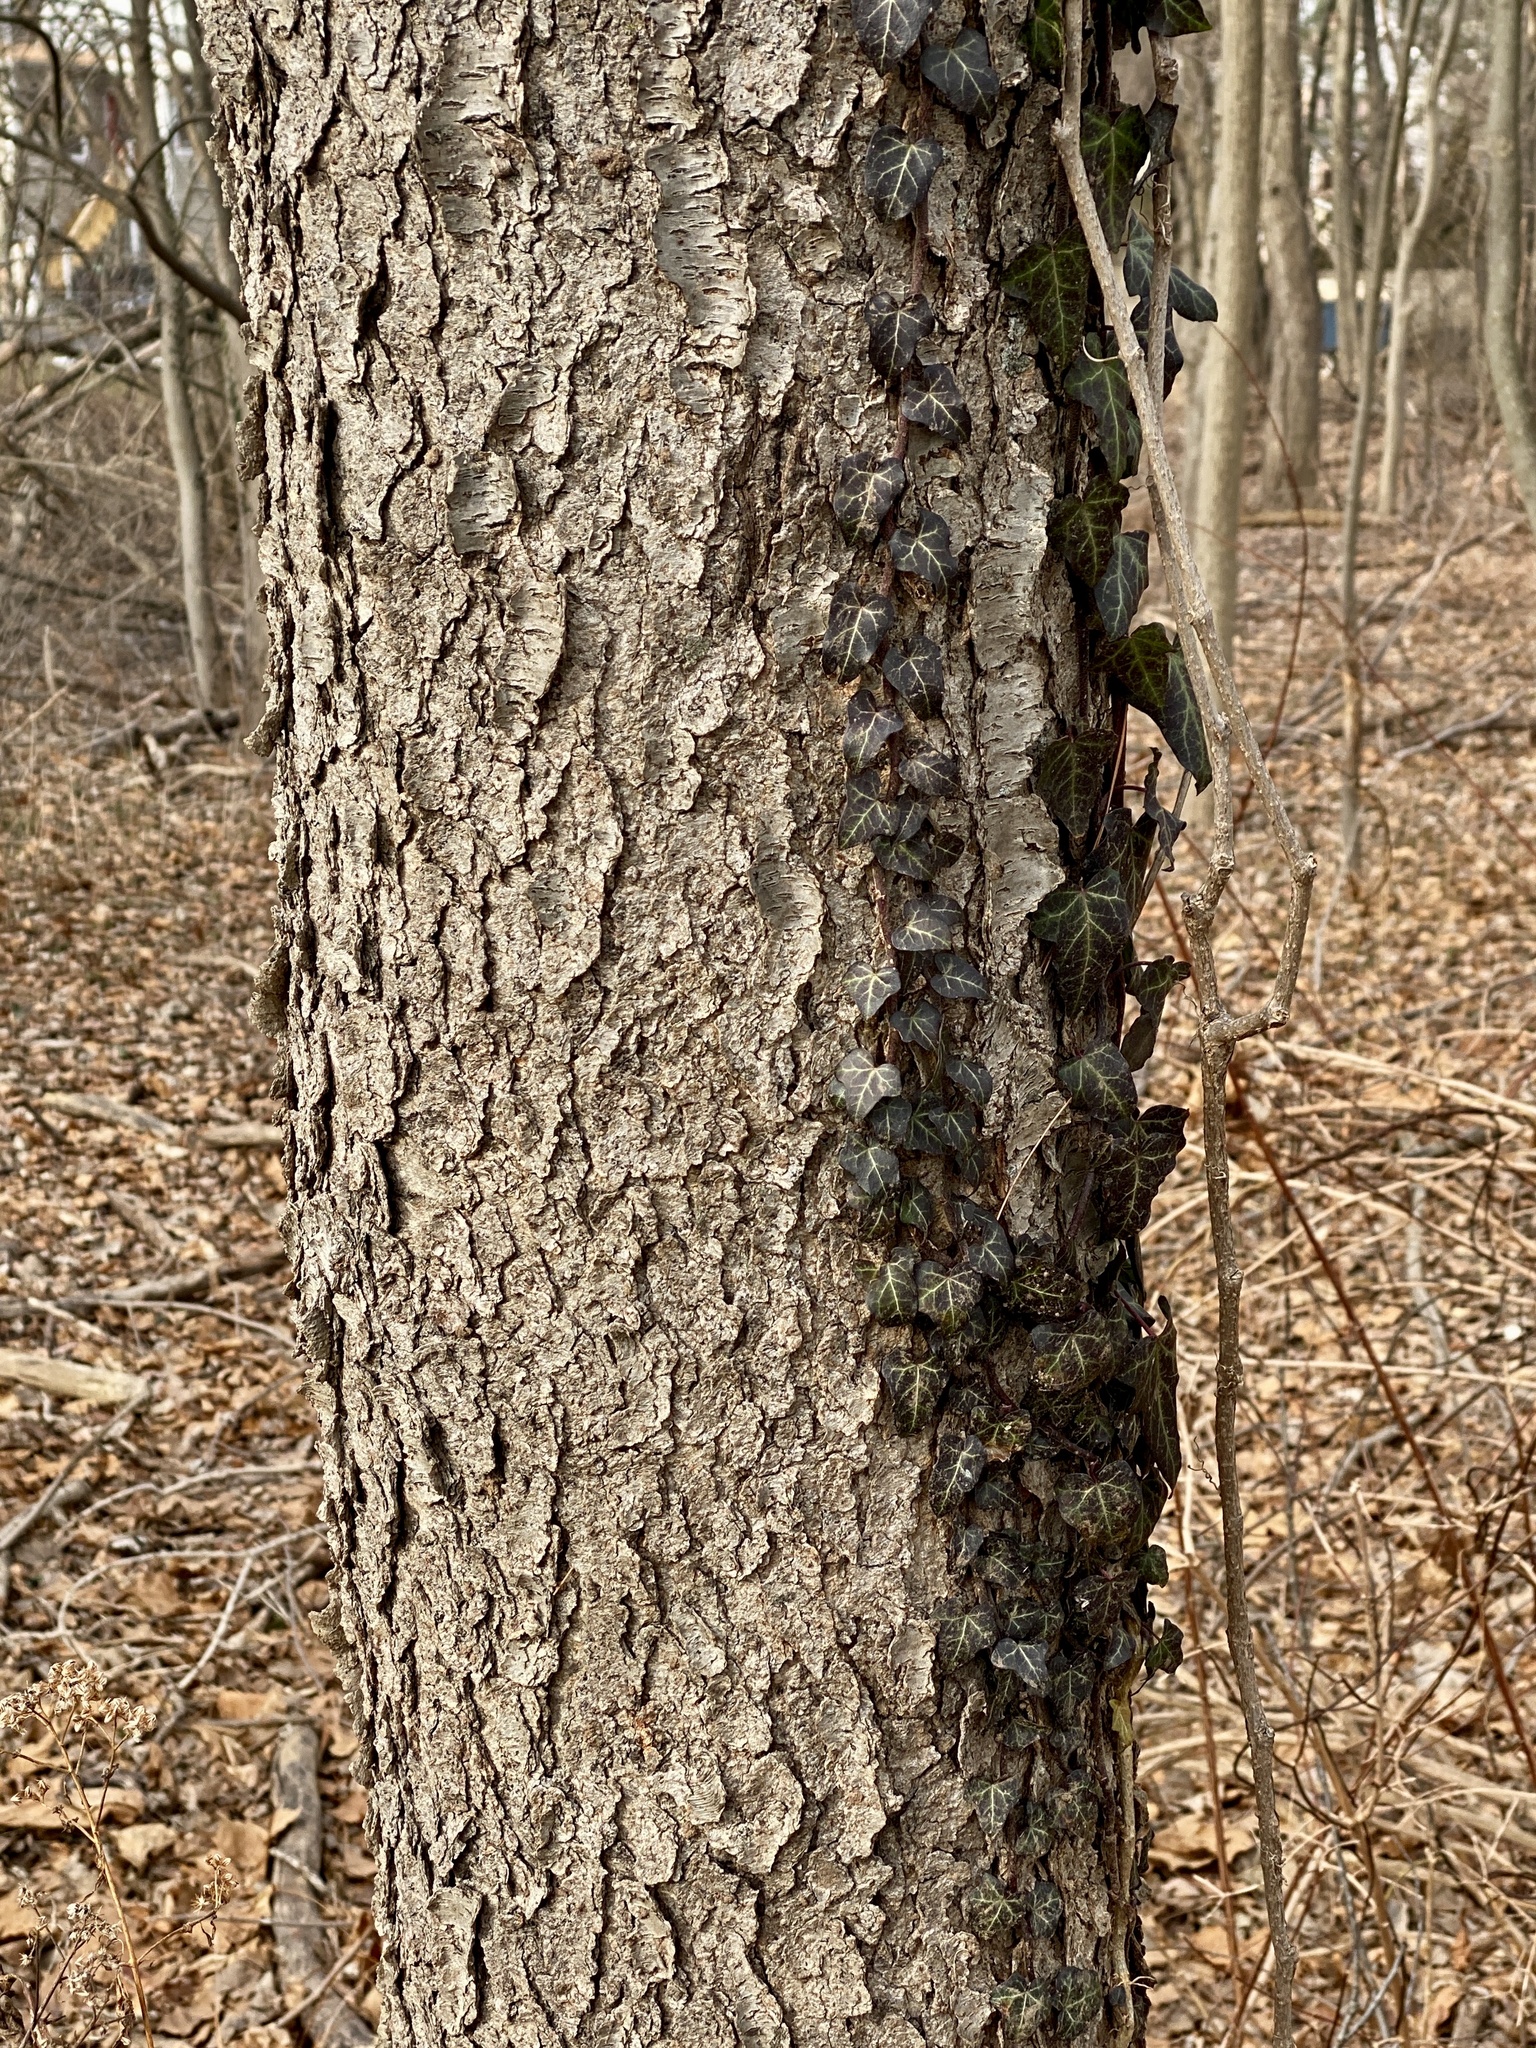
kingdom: Plantae
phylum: Tracheophyta
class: Magnoliopsida
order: Rosales
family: Rosaceae
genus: Prunus
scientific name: Prunus serotina
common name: Black cherry
